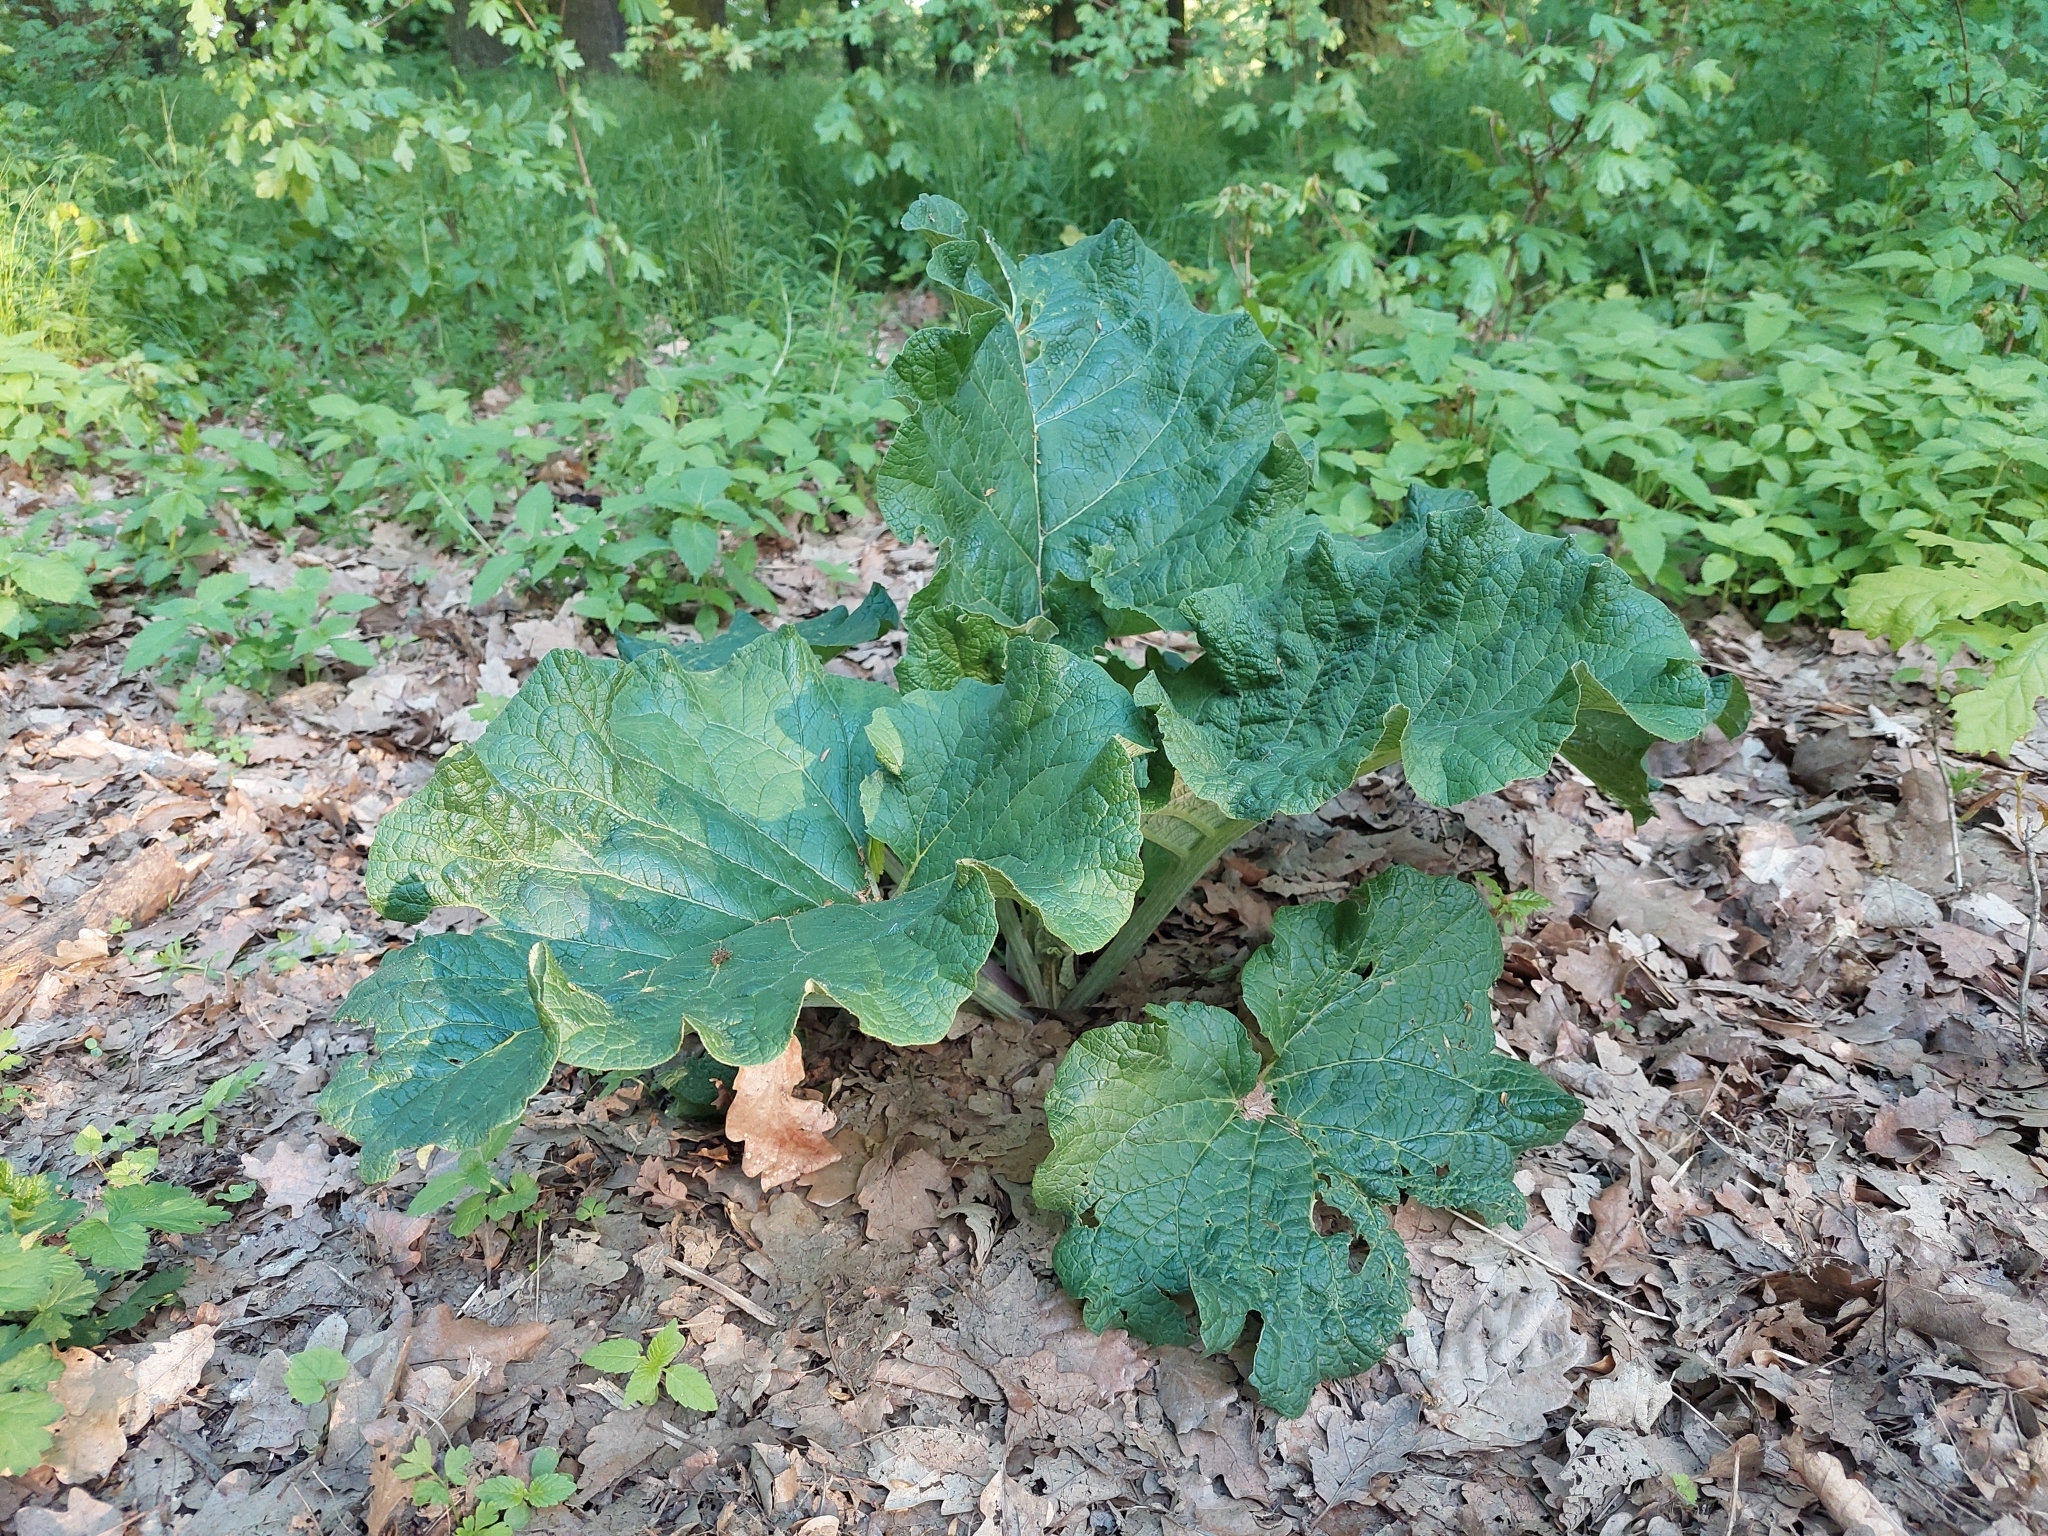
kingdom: Plantae
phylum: Tracheophyta
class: Magnoliopsida
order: Asterales
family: Asteraceae
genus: Arctium
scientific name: Arctium
